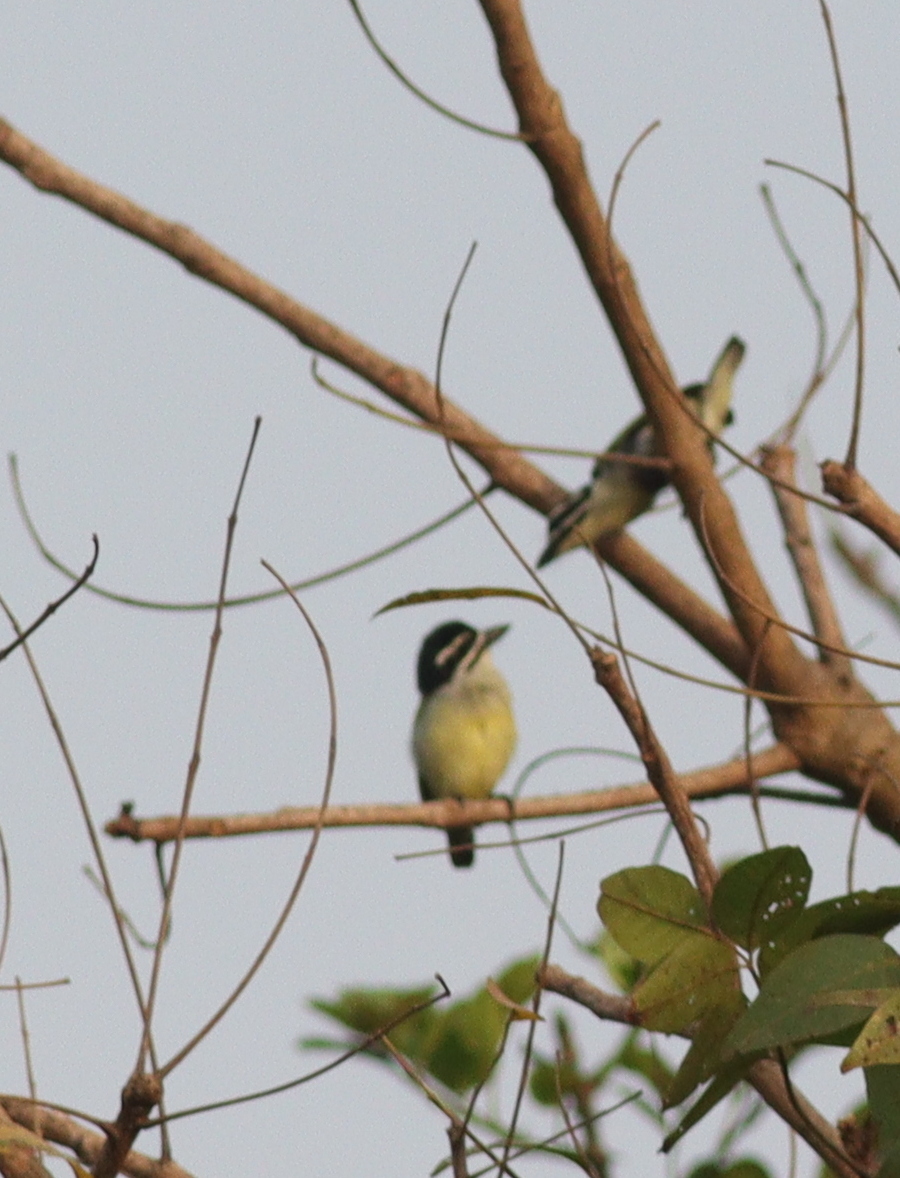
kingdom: Animalia
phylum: Chordata
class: Aves
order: Piciformes
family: Lybiidae
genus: Pogoniulus
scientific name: Pogoniulus bilineatus
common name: Yellow-rumped tinkerbird
